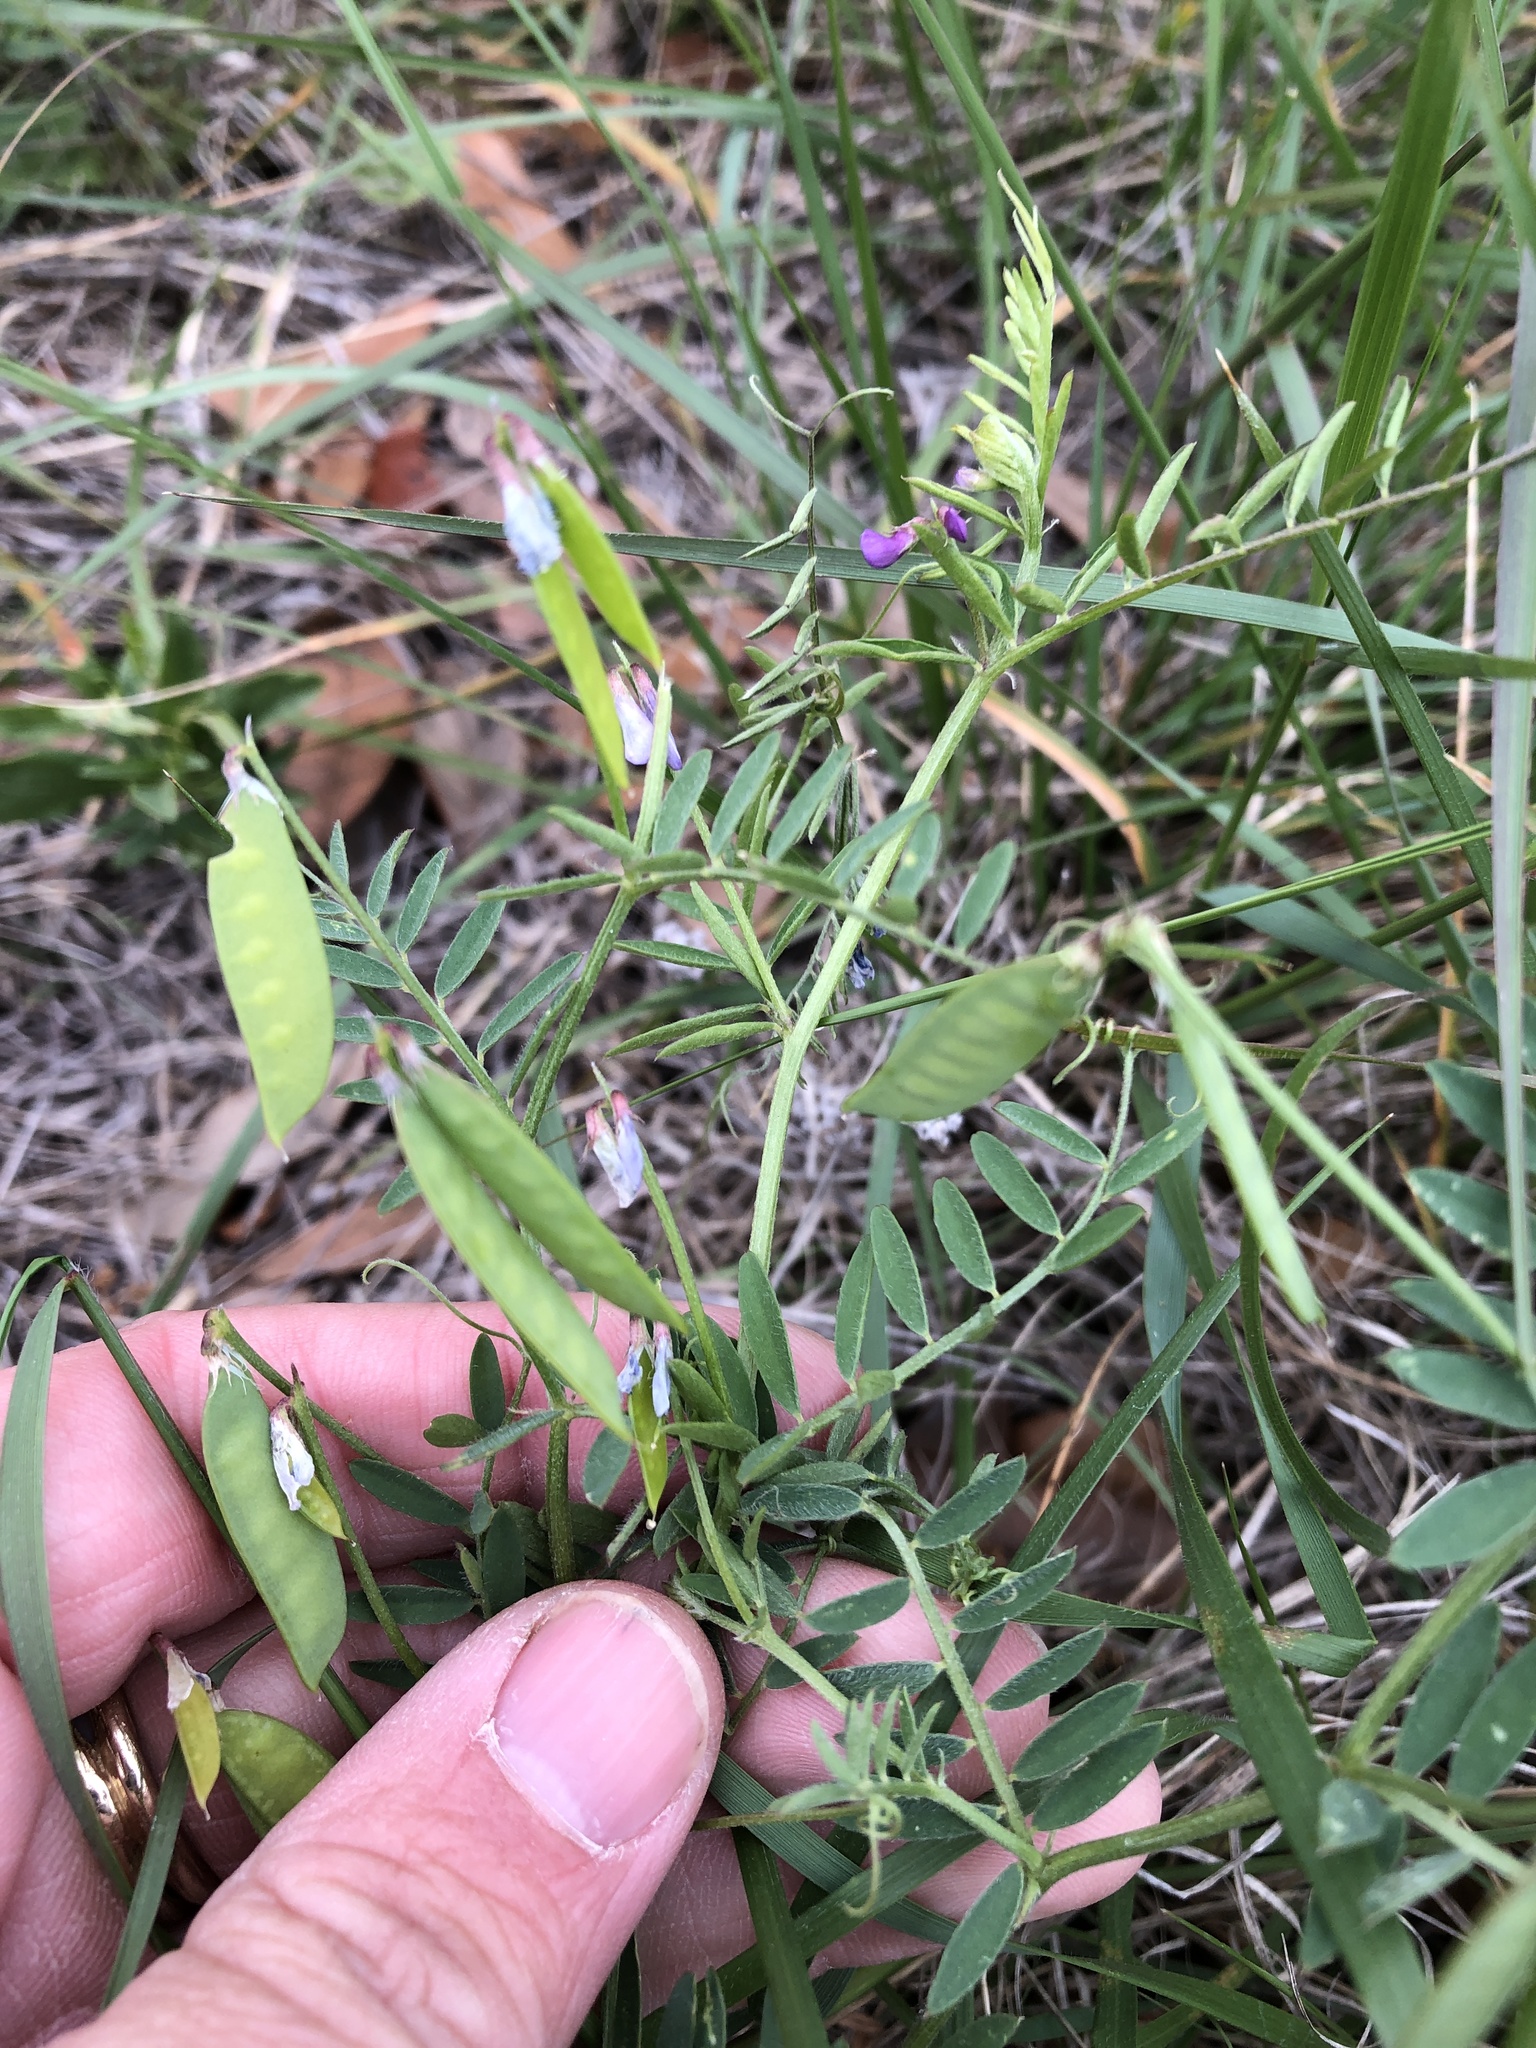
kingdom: Plantae
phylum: Tracheophyta
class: Magnoliopsida
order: Fabales
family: Fabaceae
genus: Vicia
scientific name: Vicia ludoviciana
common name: Louisiana vetch
